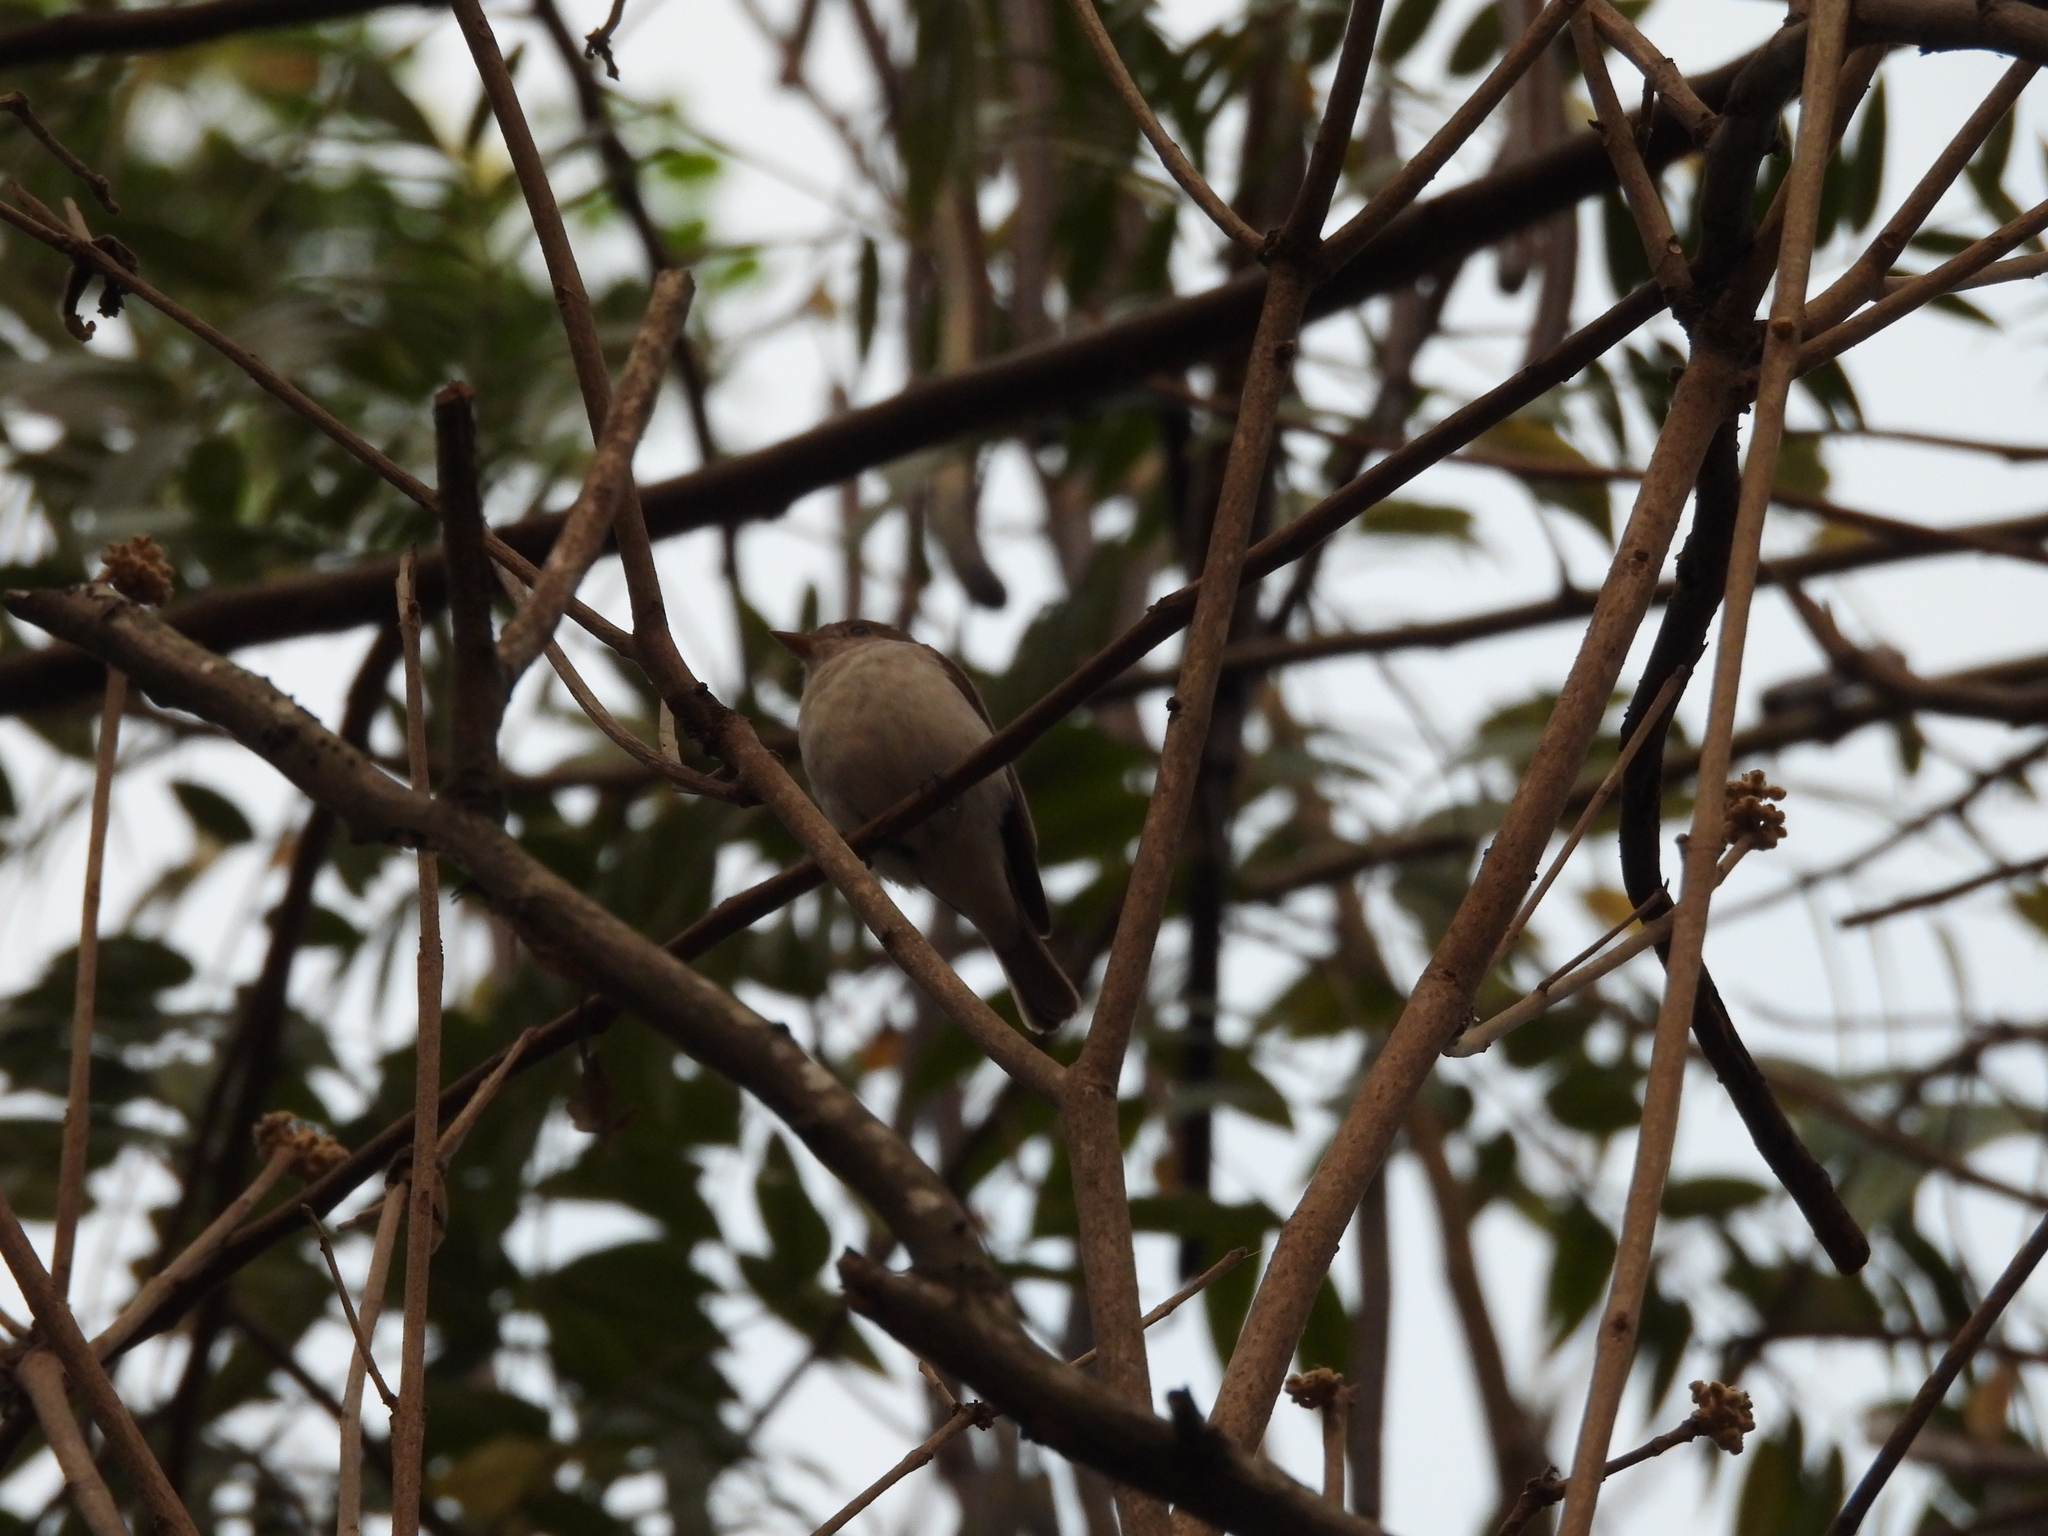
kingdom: Animalia
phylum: Chordata
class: Aves
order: Passeriformes
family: Muscicapidae
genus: Muscicapa
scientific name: Muscicapa latirostris
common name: Asian brown flycatcher
